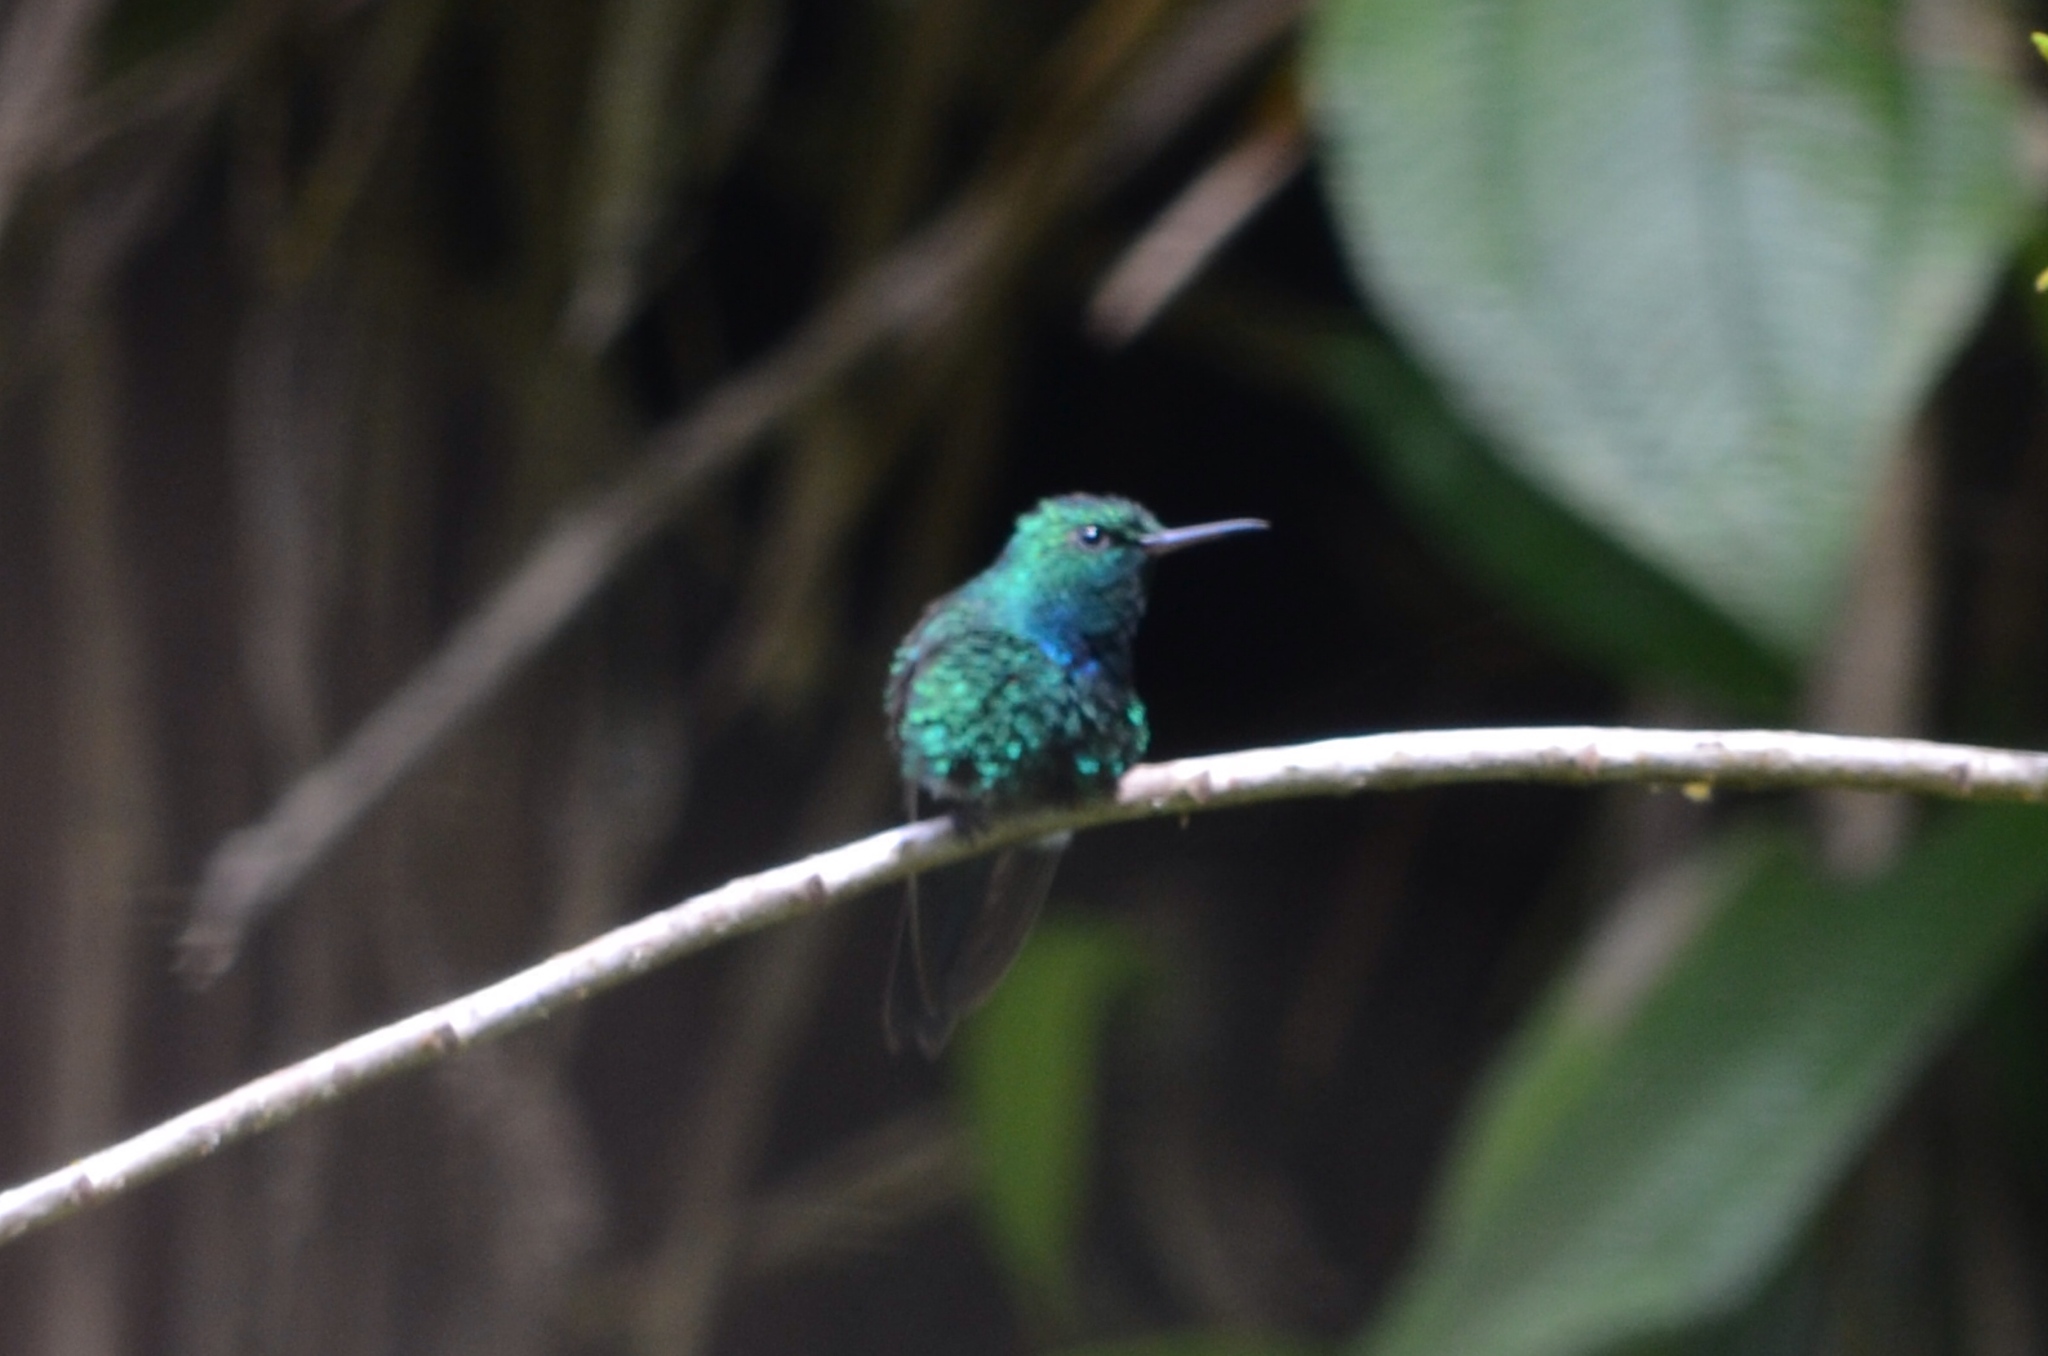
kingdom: Animalia
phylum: Chordata
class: Aves
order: Apodiformes
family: Trochilidae
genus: Riccordia
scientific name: Riccordia maugaeus
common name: Puerto rican emerald
